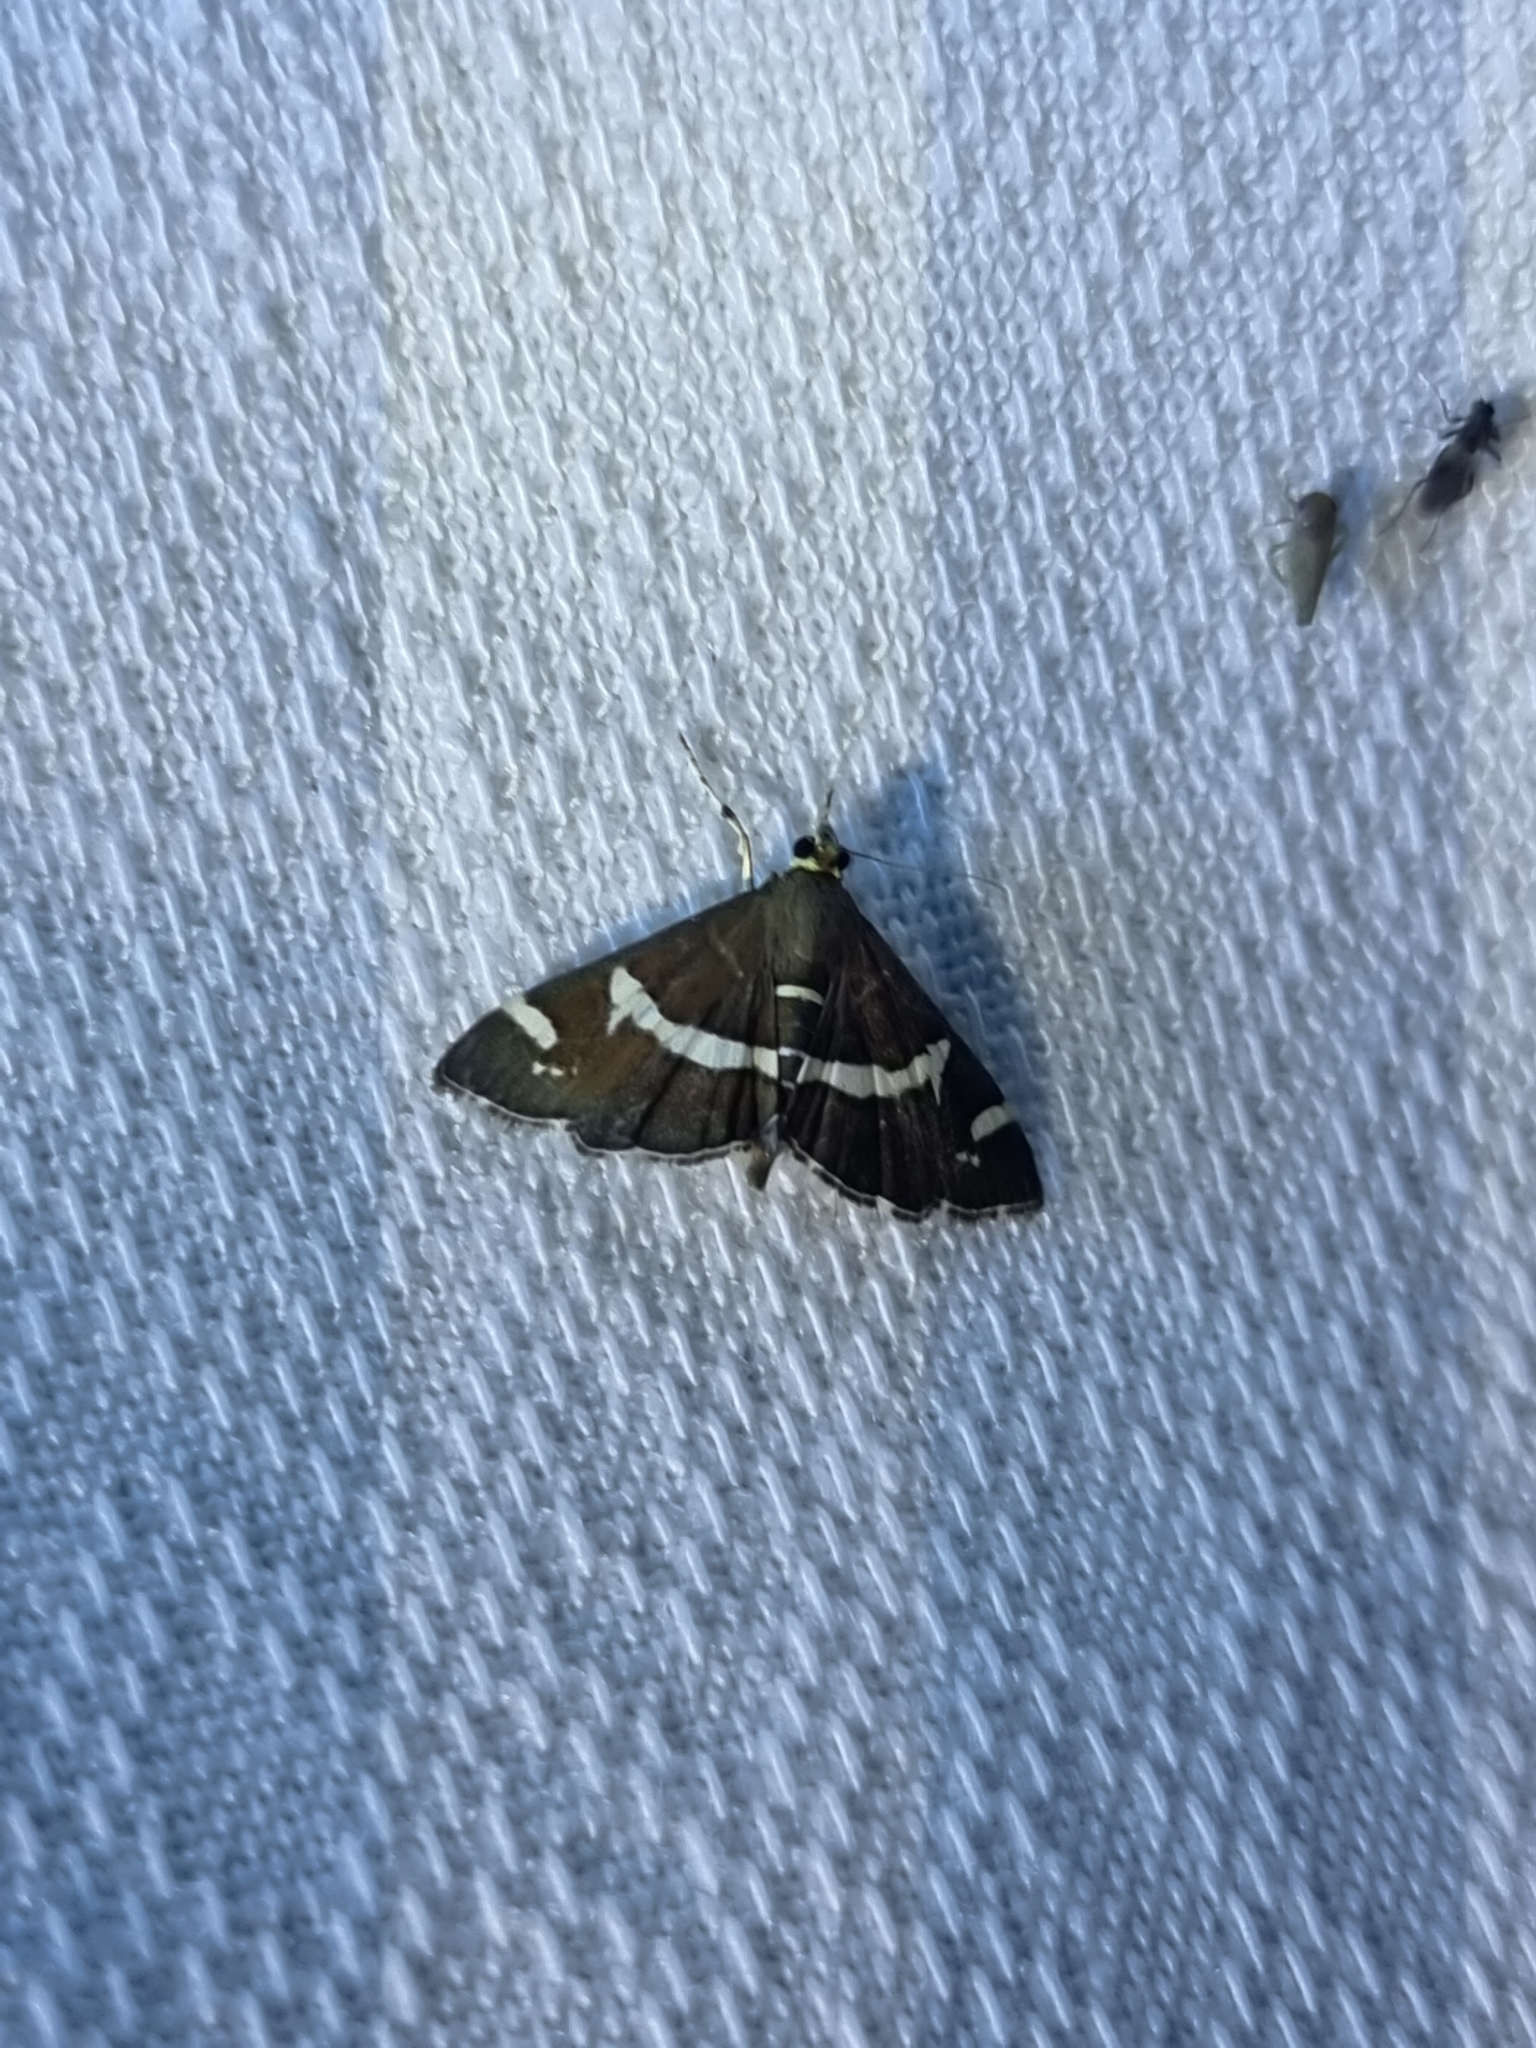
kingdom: Animalia
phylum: Arthropoda
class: Insecta
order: Lepidoptera
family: Crambidae
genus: Spoladea
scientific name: Spoladea recurvalis
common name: Beet webworm moth
